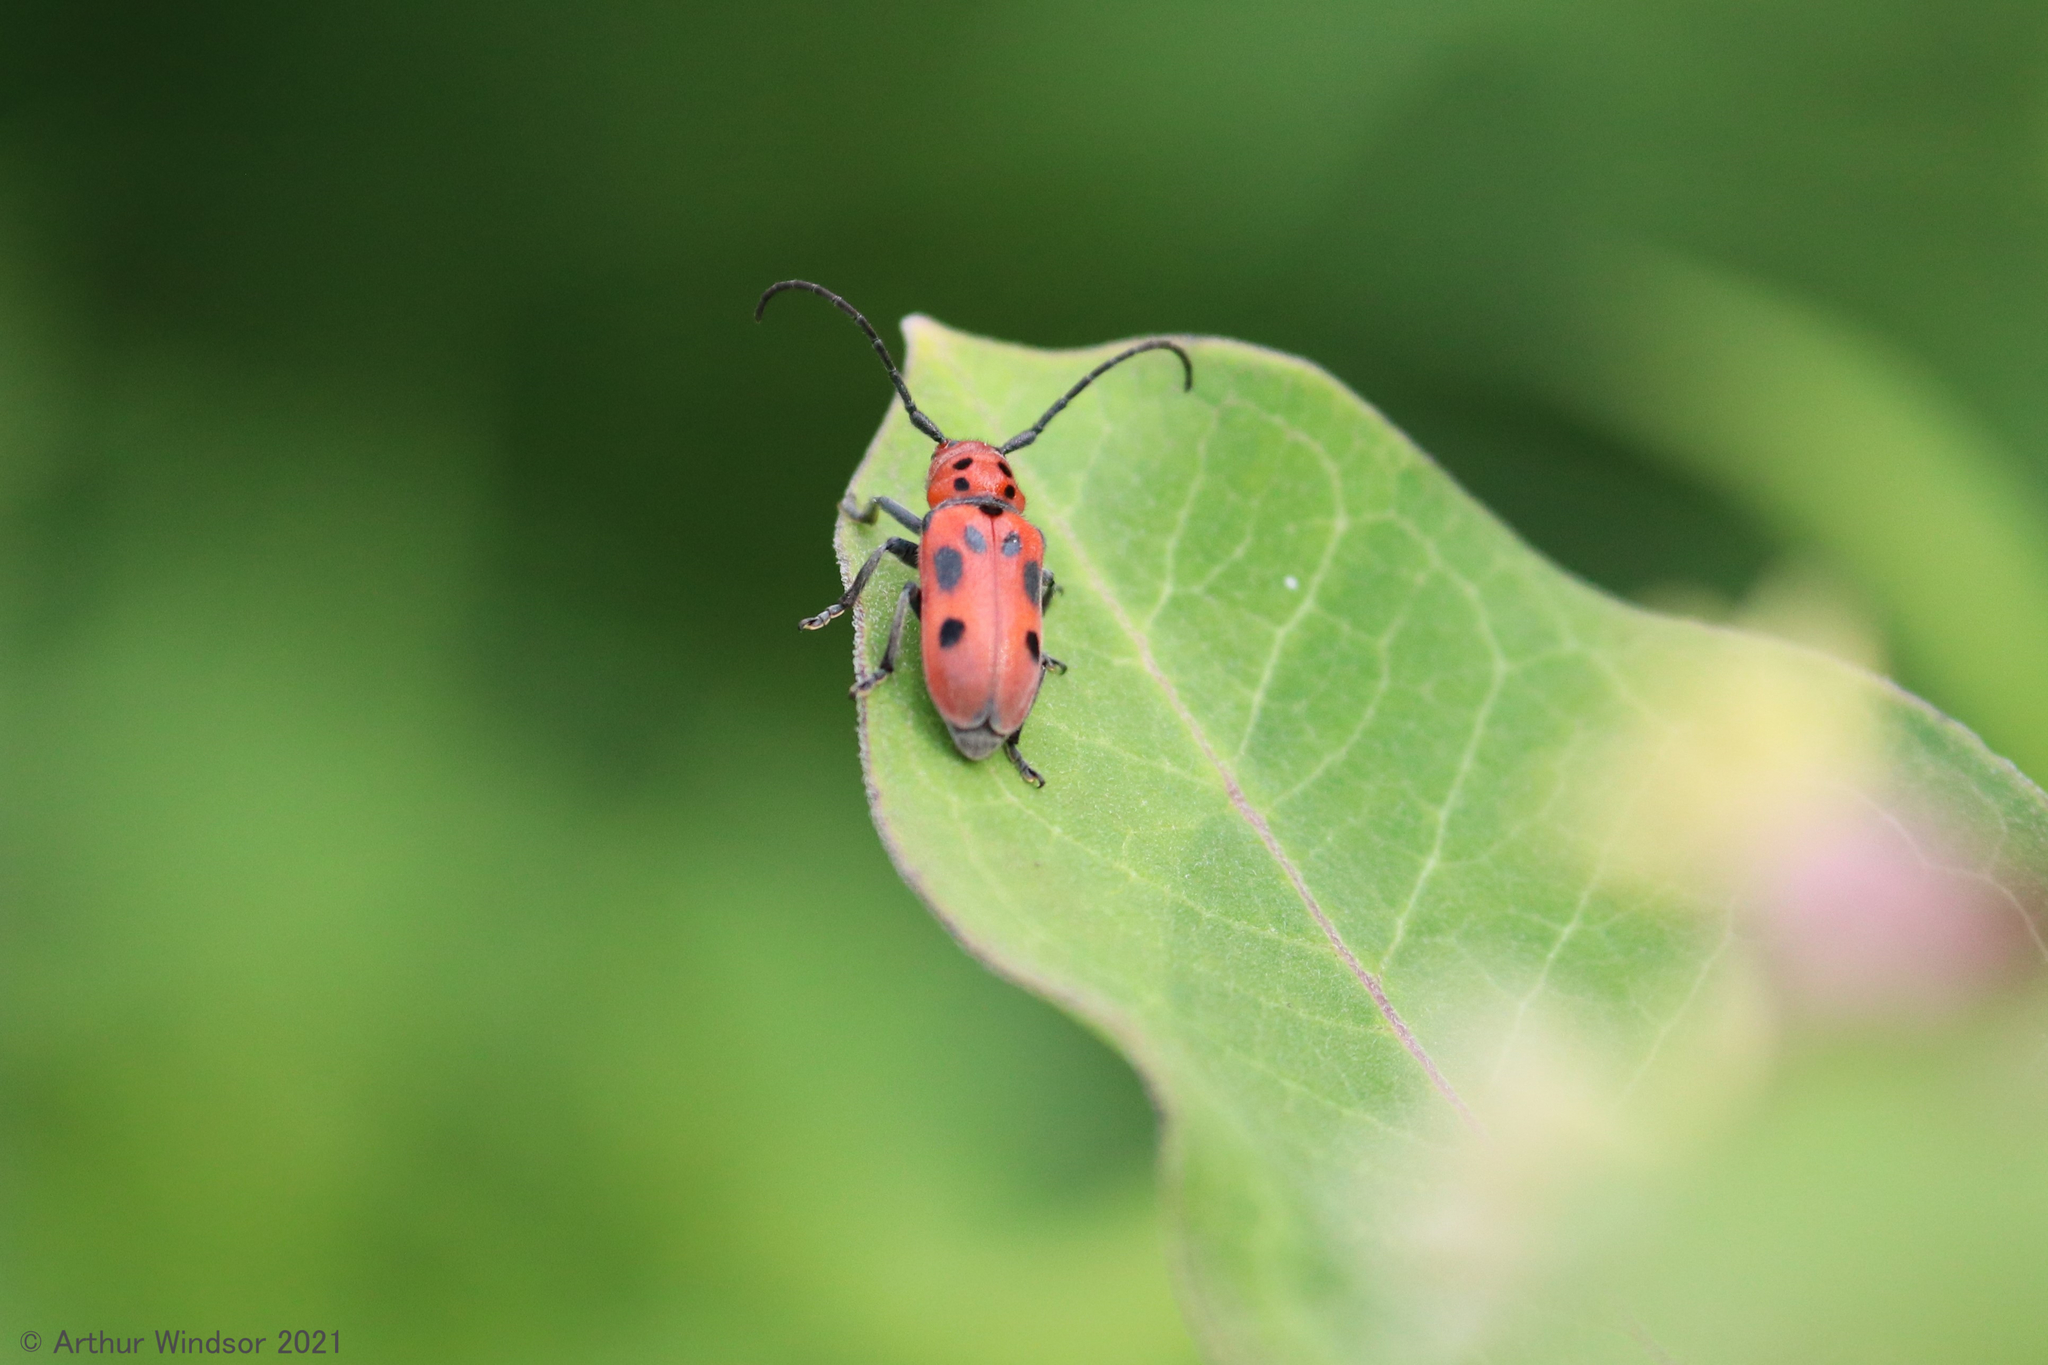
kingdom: Animalia
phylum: Arthropoda
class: Insecta
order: Coleoptera
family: Cerambycidae
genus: Tetraopes
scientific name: Tetraopes tetrophthalmus
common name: Red milkweed beetle
